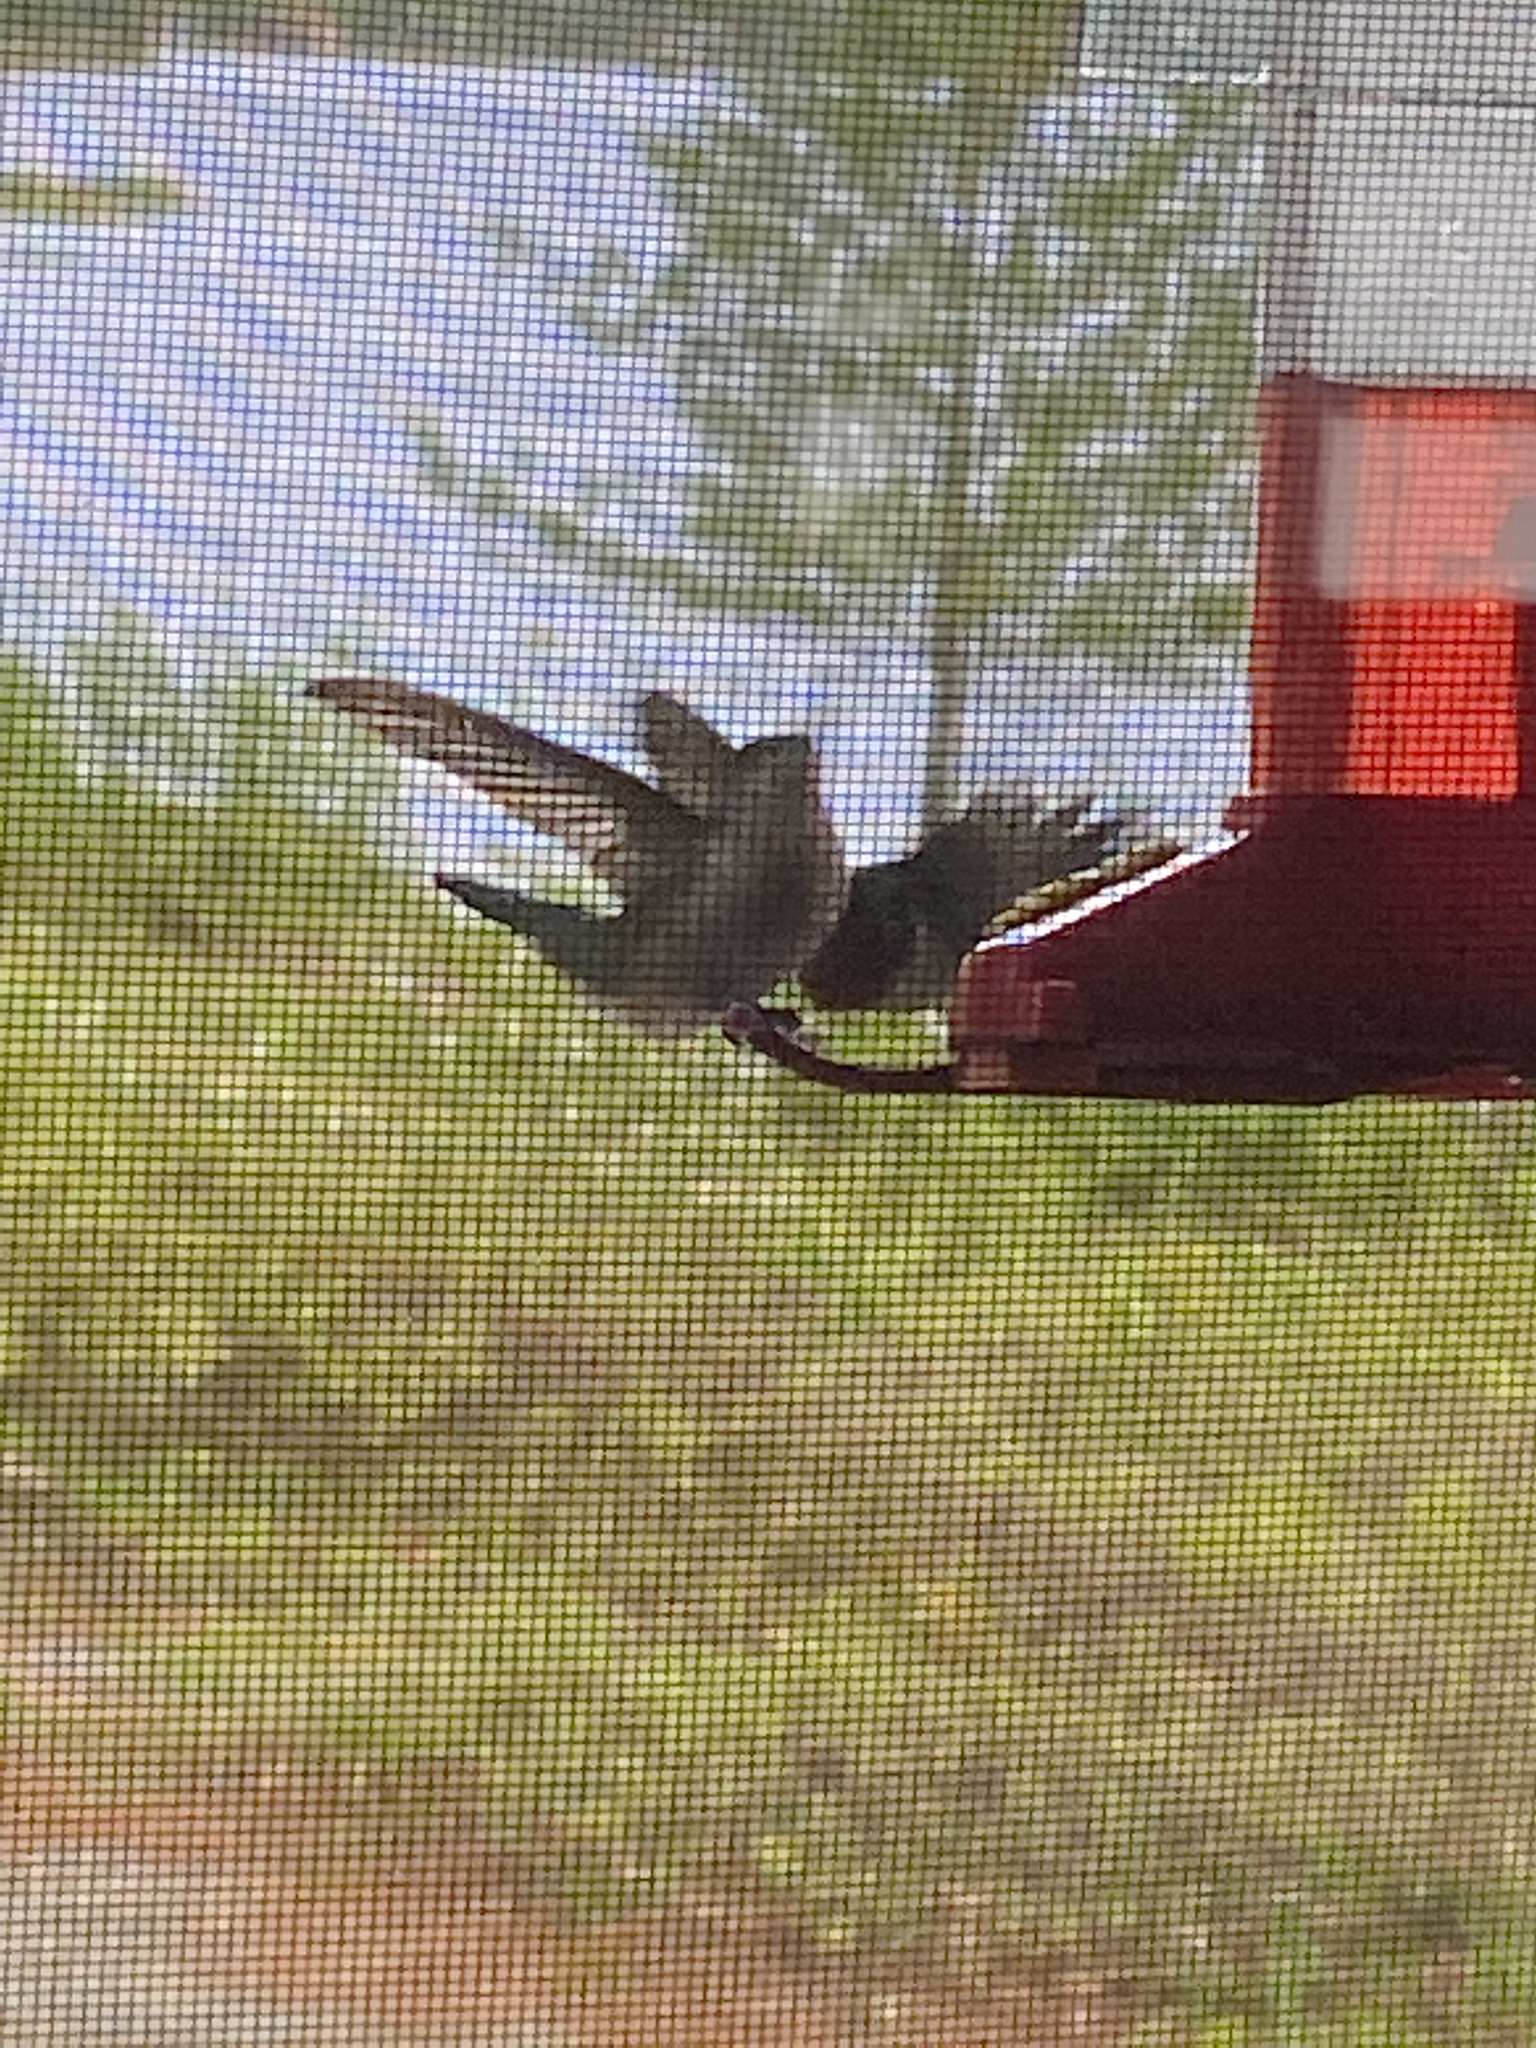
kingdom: Animalia
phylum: Chordata
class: Aves
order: Apodiformes
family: Trochilidae
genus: Archilochus
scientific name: Archilochus colubris
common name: Ruby-throated hummingbird
